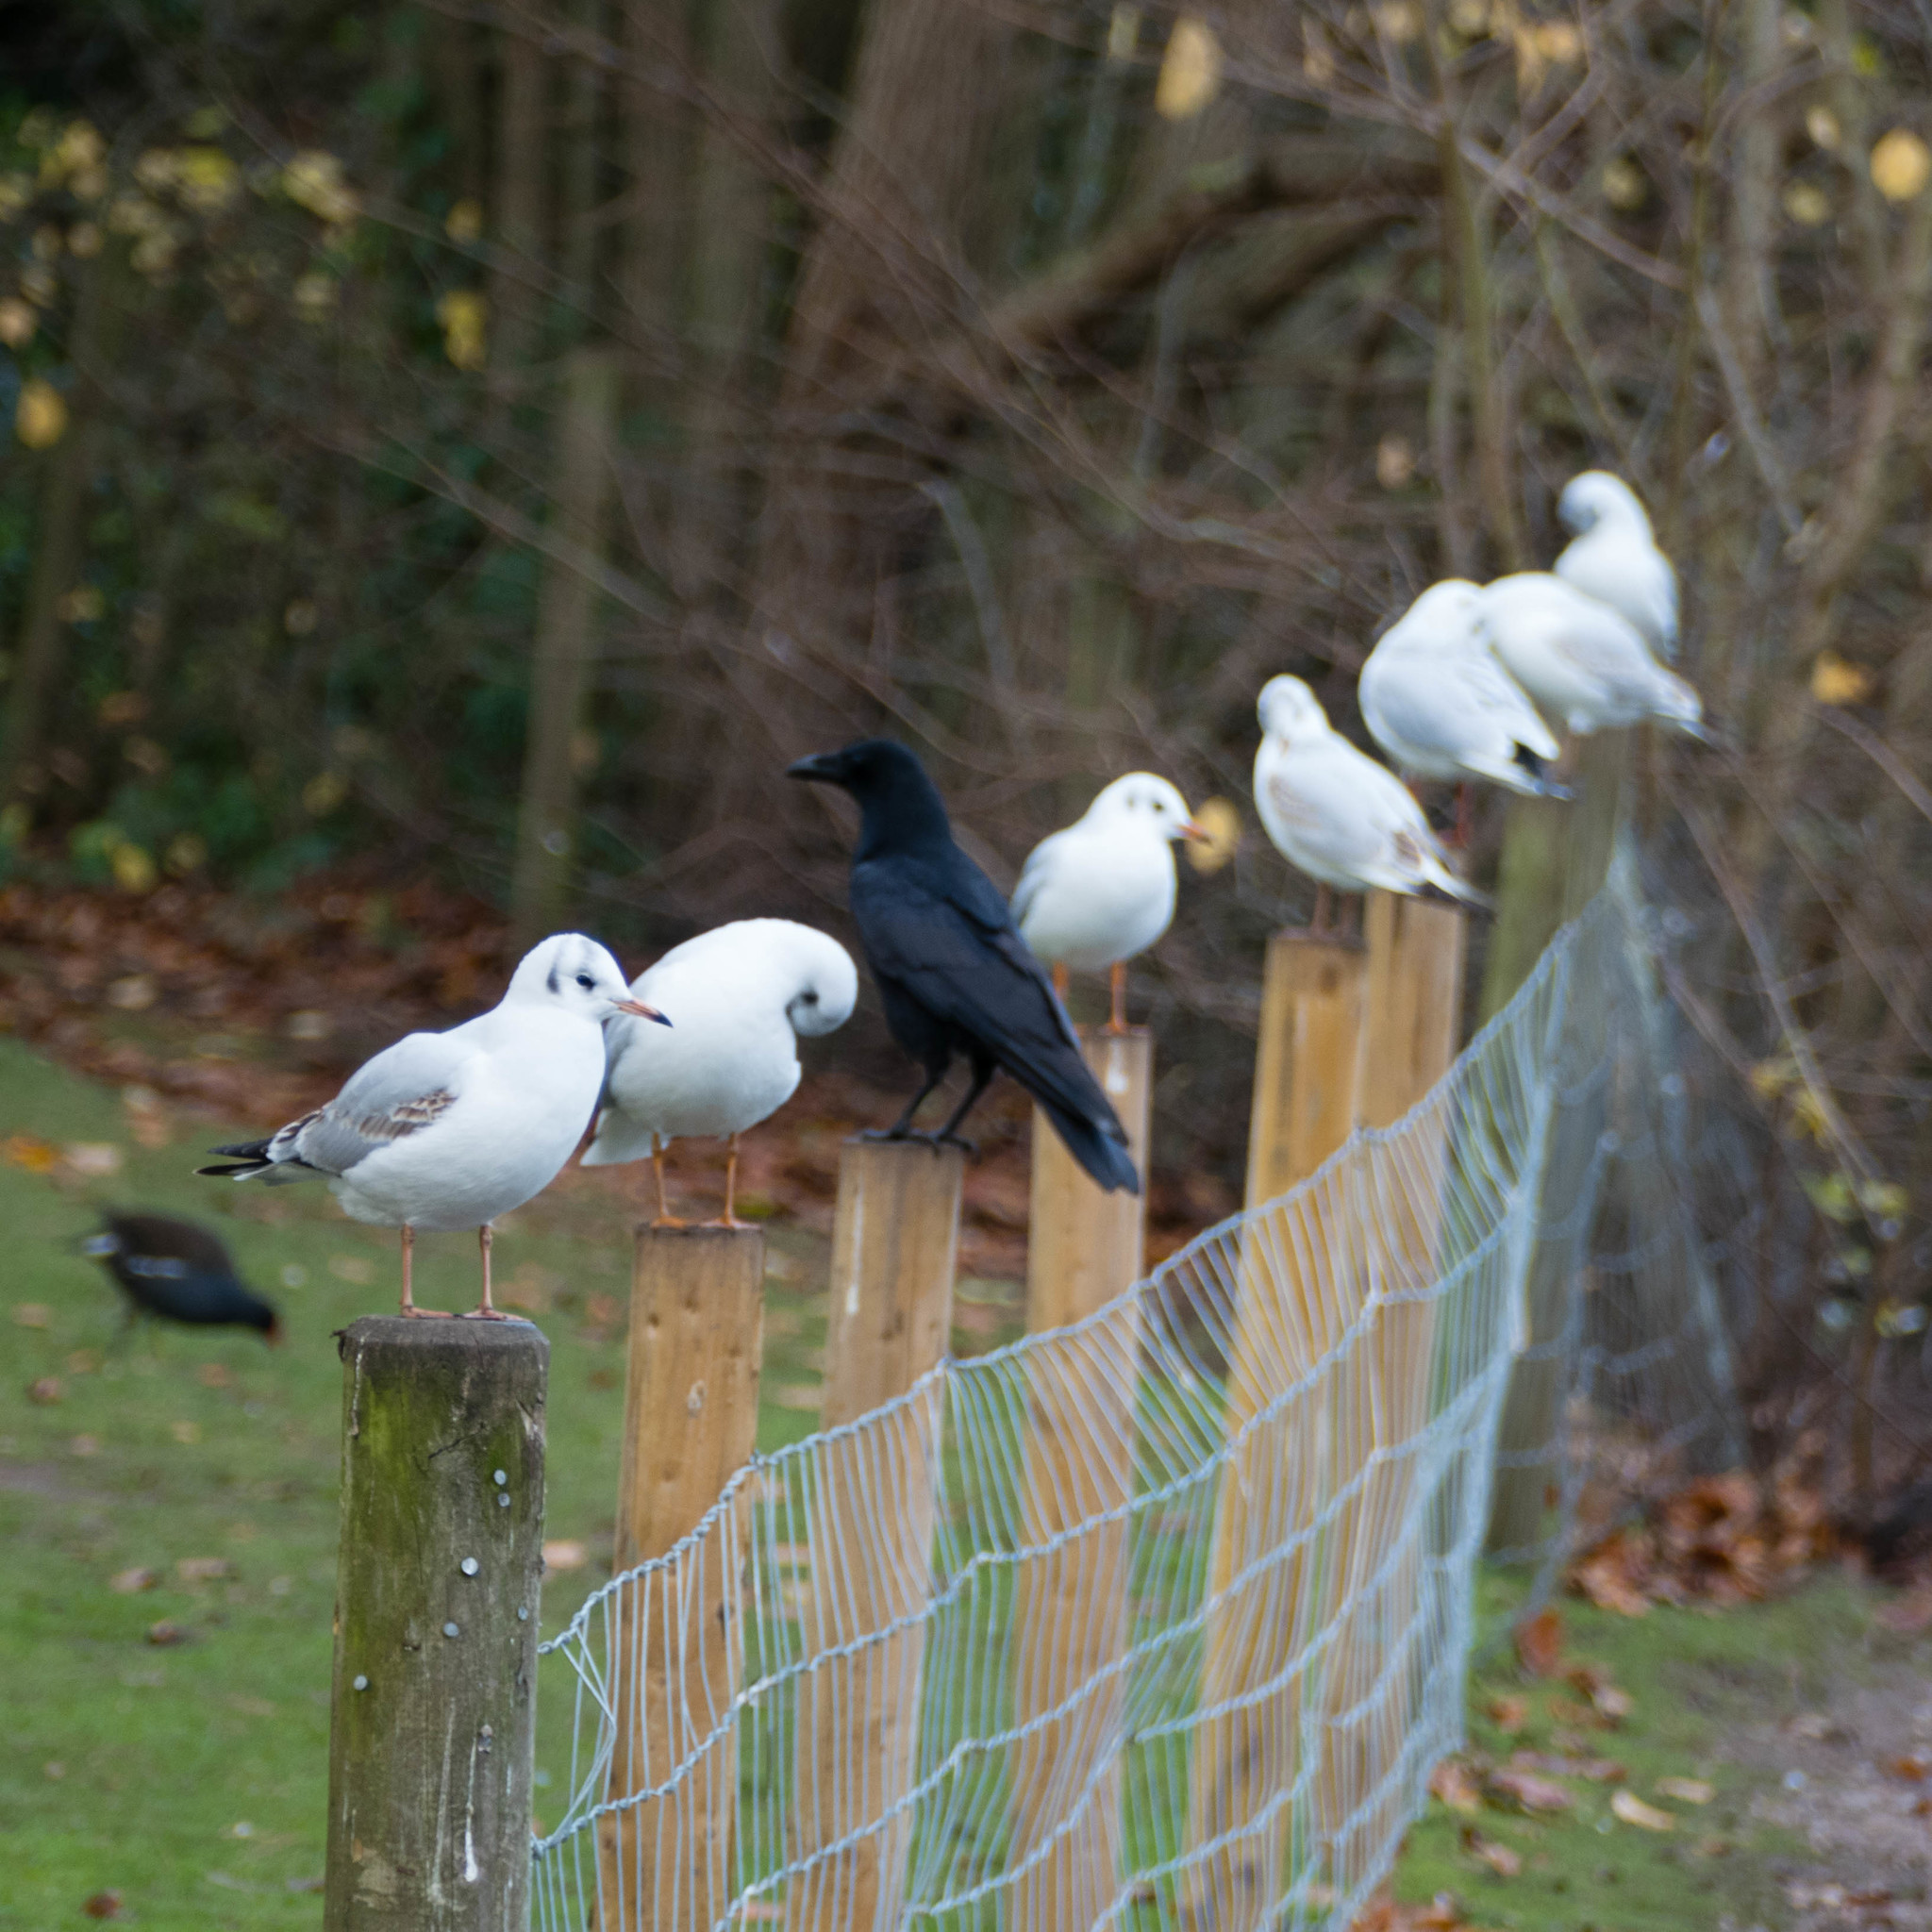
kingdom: Animalia
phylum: Chordata
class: Aves
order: Charadriiformes
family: Laridae
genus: Chroicocephalus
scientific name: Chroicocephalus ridibundus
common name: Black-headed gull
